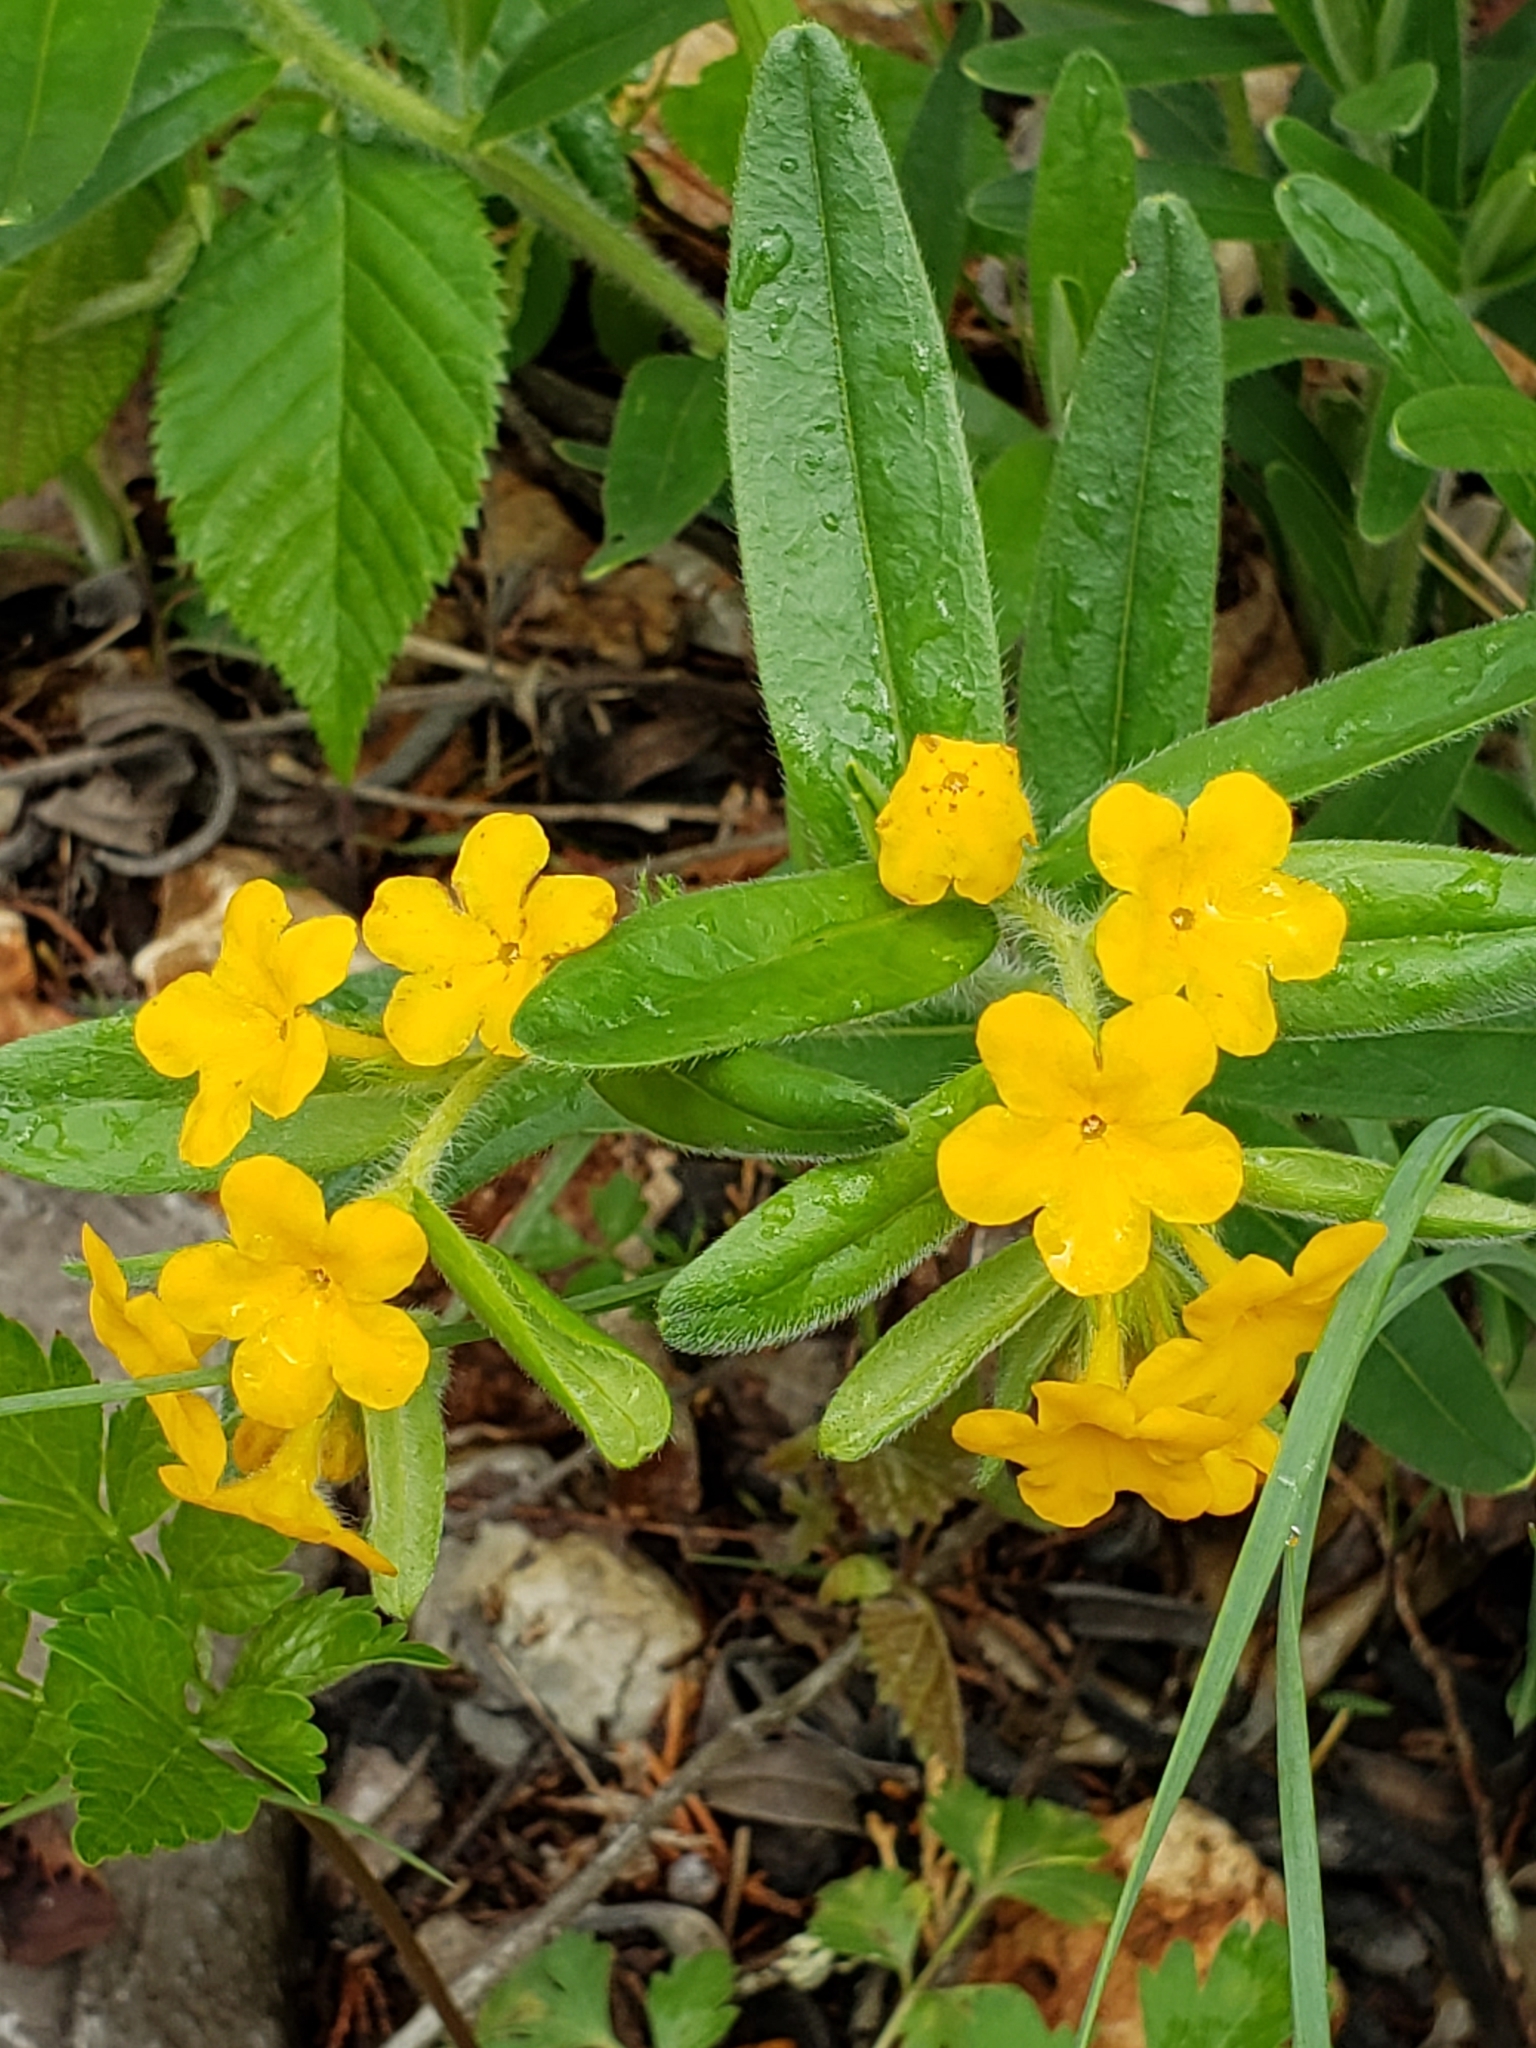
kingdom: Plantae
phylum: Tracheophyta
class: Magnoliopsida
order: Boraginales
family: Boraginaceae
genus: Lithospermum
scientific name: Lithospermum canescens
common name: Hoary puccoon
